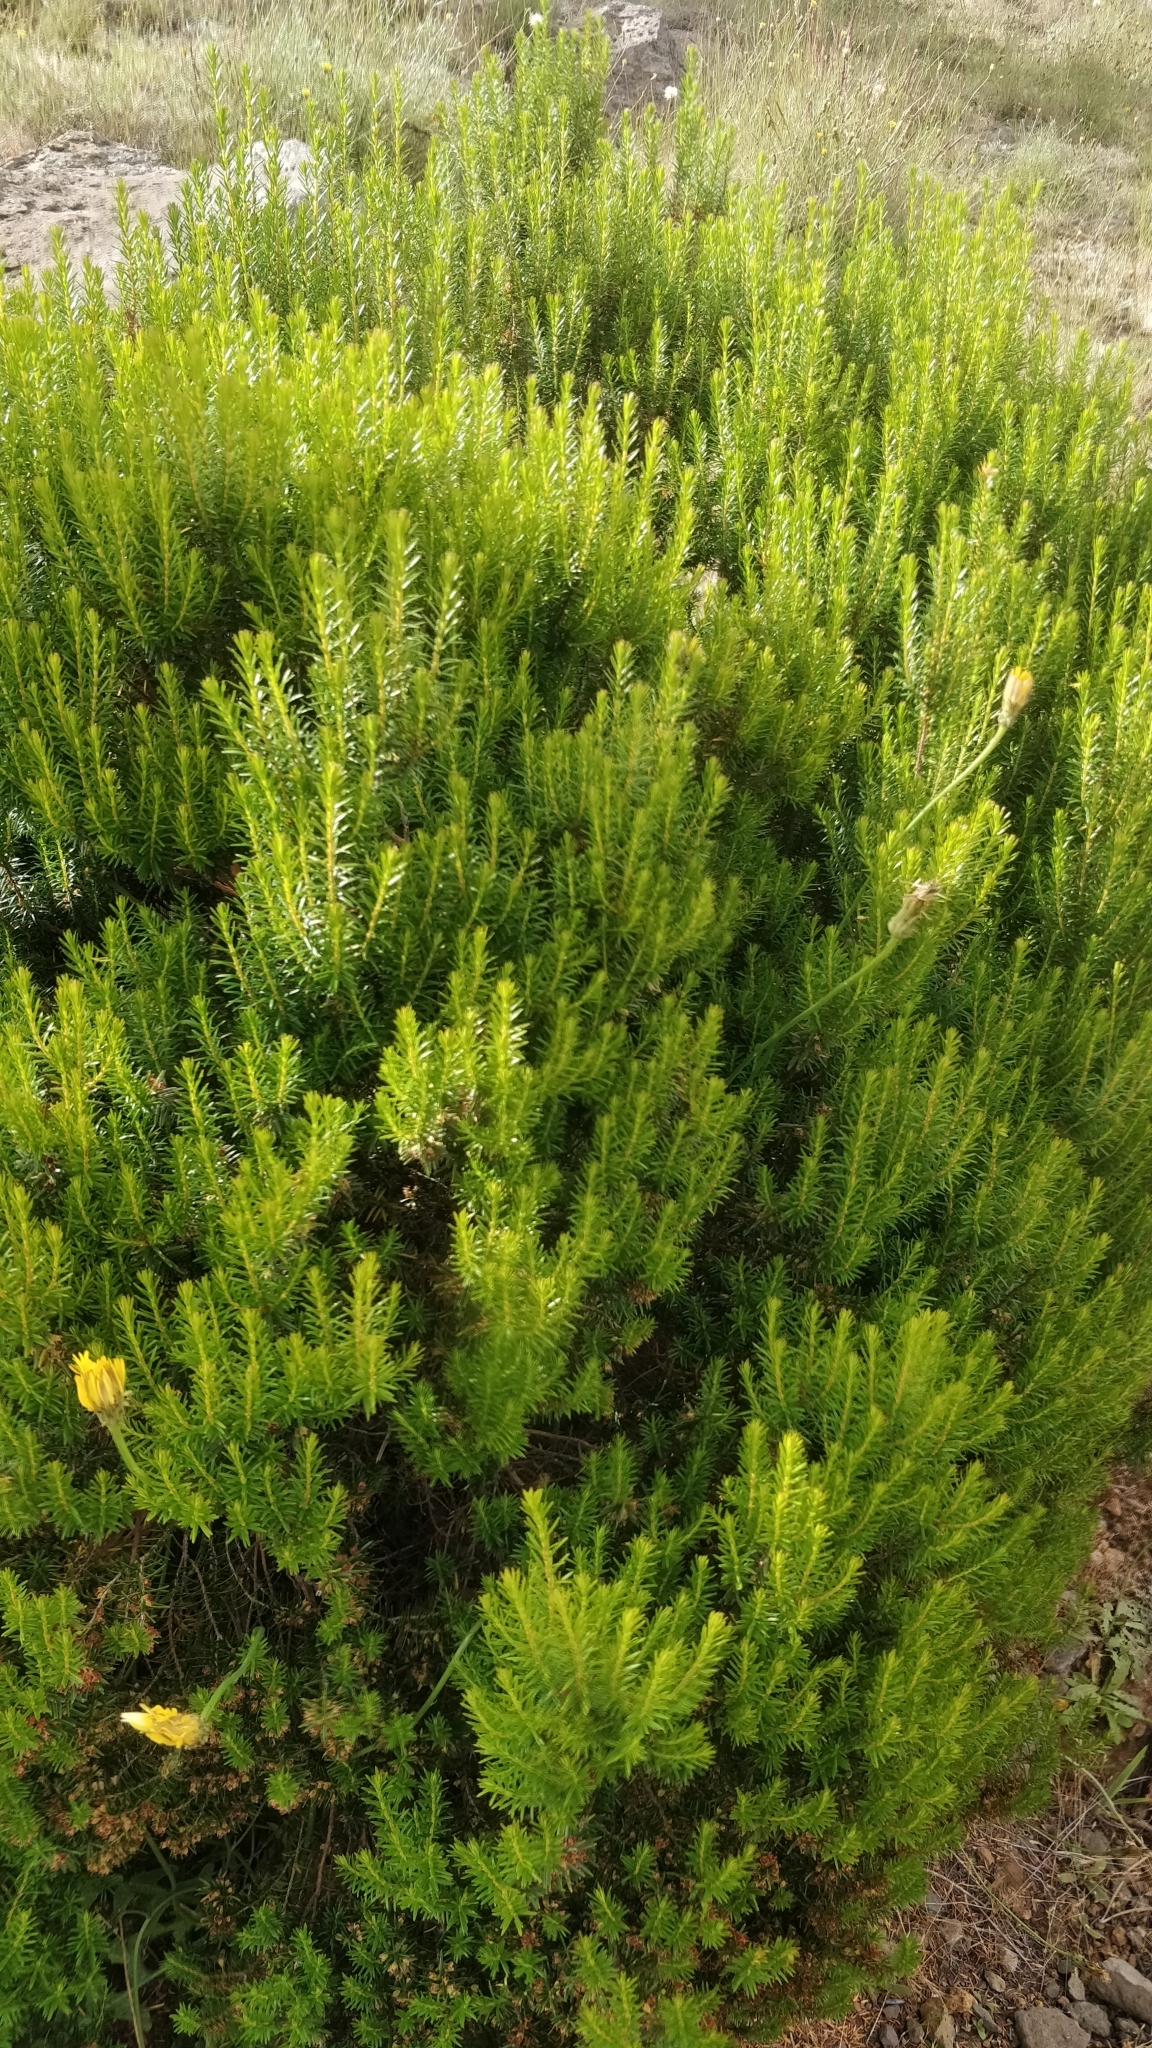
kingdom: Plantae
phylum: Tracheophyta
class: Magnoliopsida
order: Ericales
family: Ericaceae
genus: Erica
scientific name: Erica platycodon
